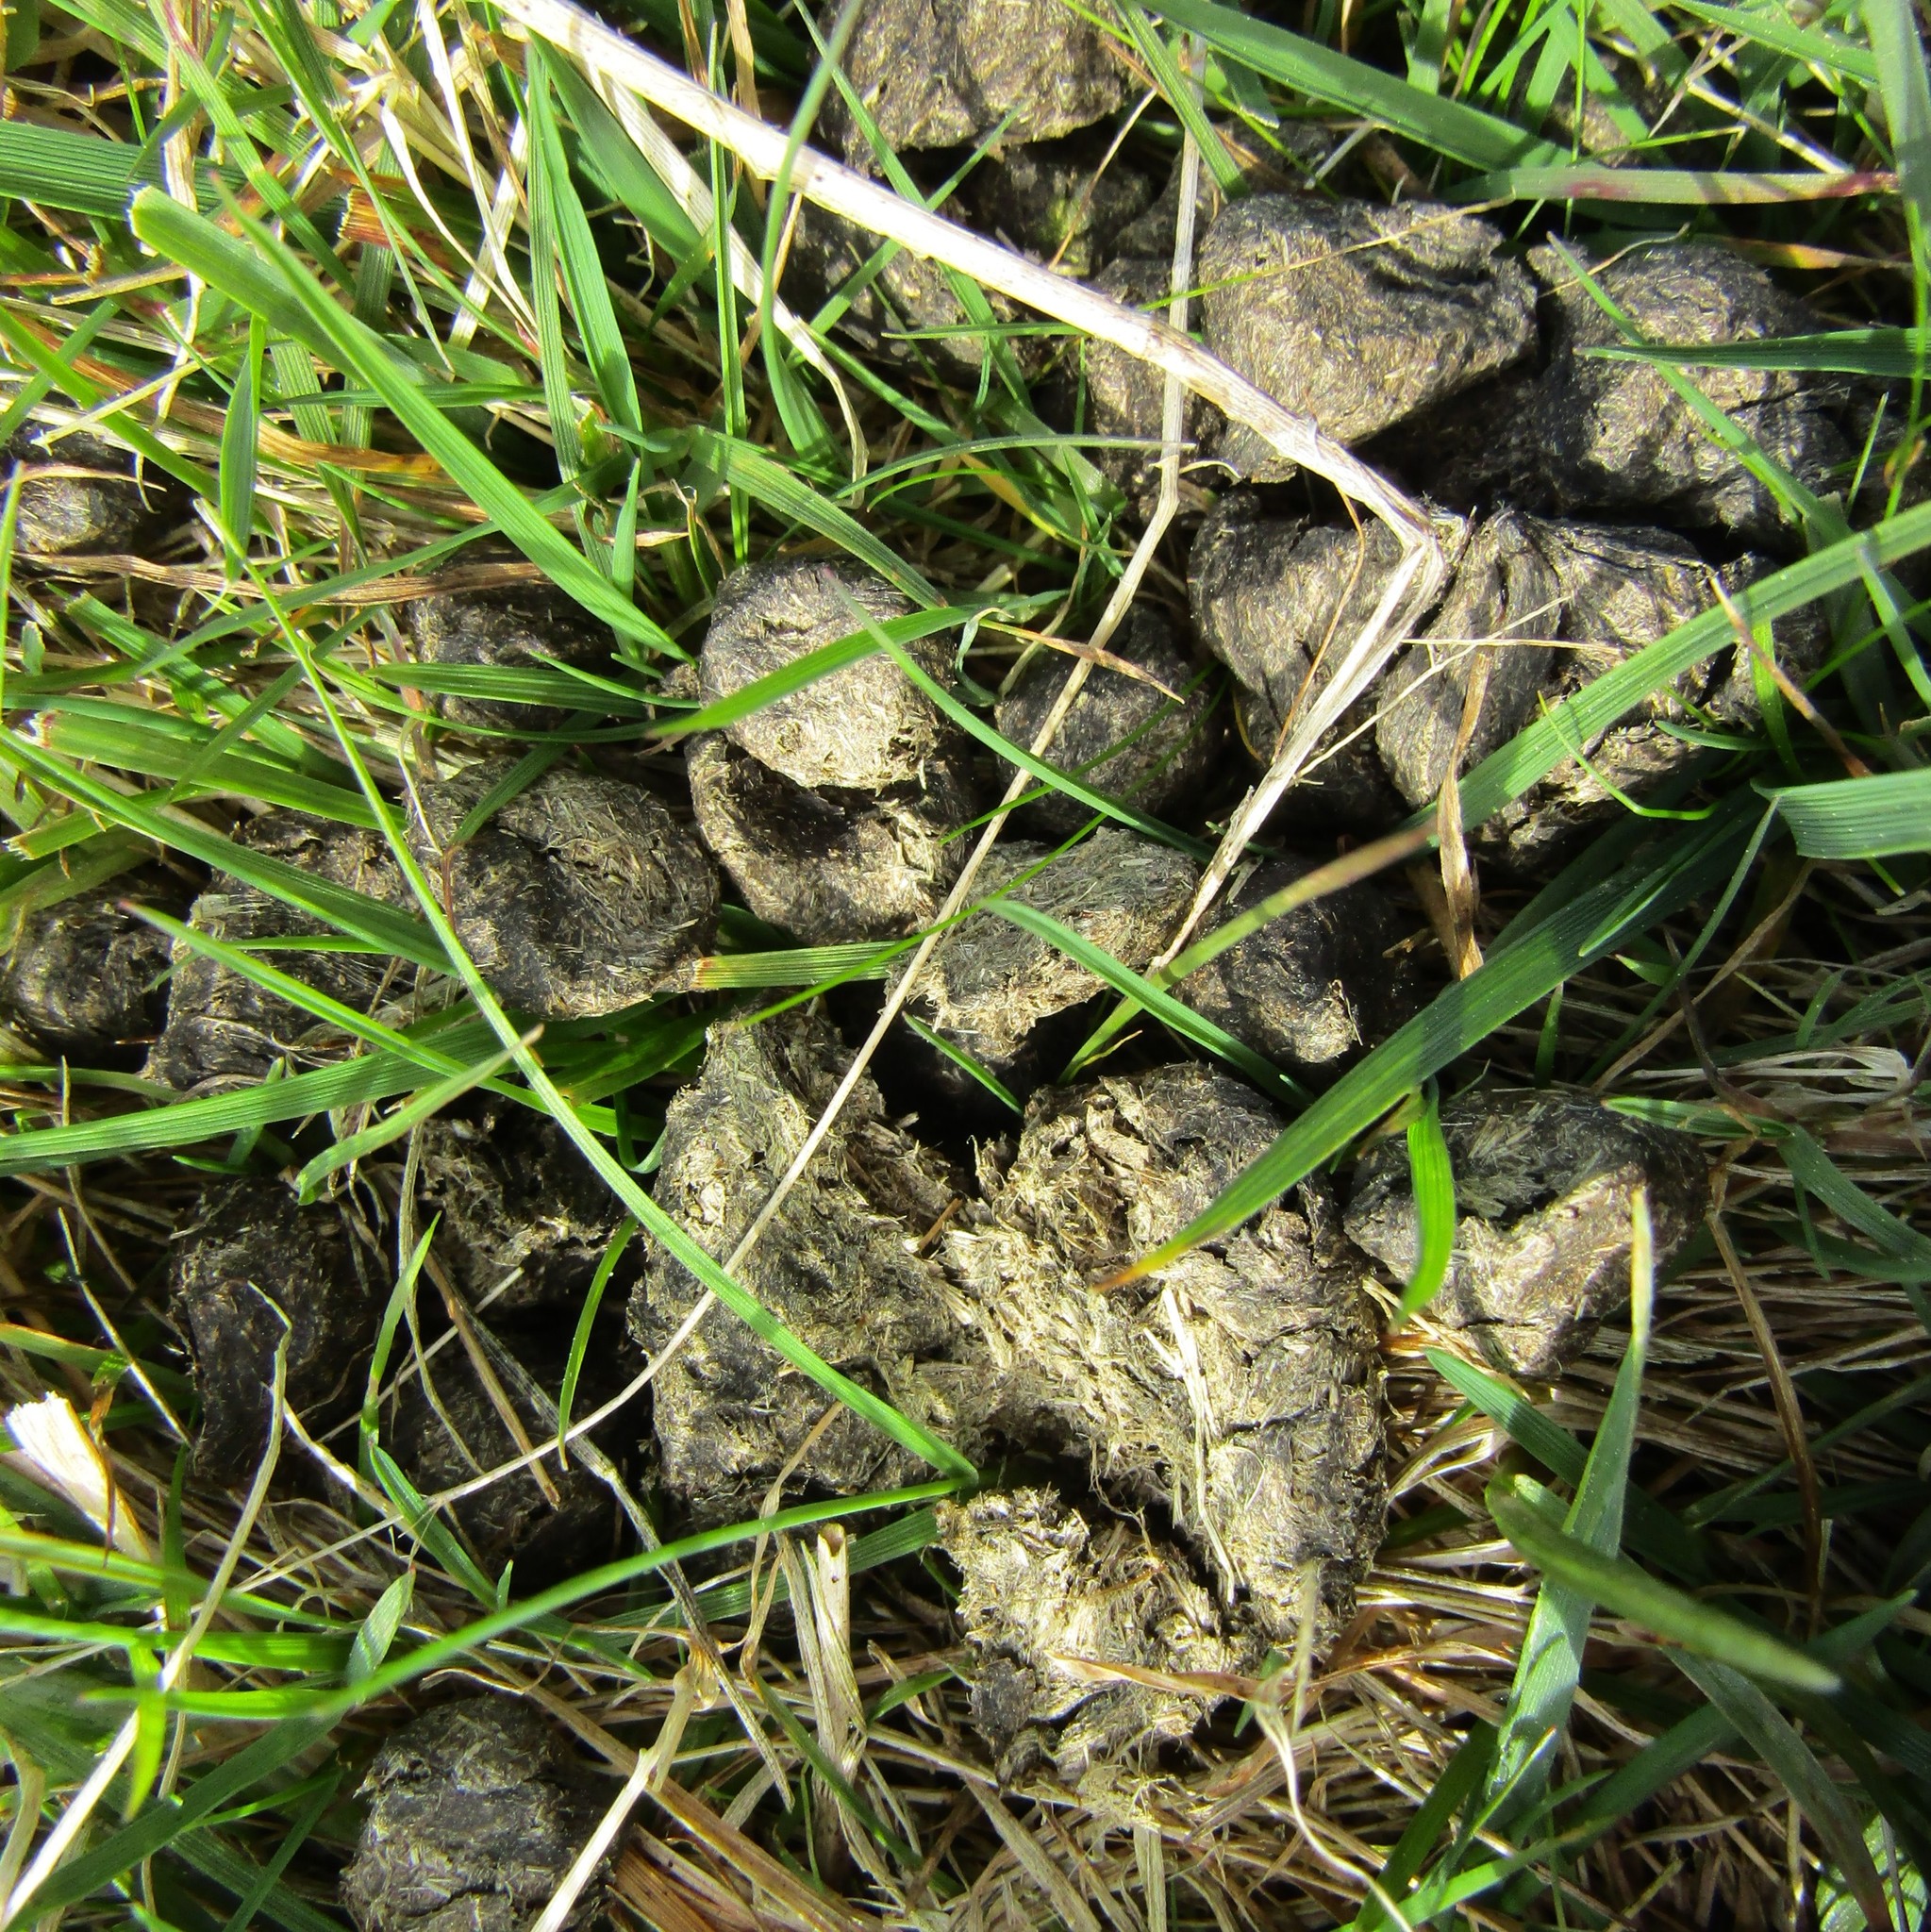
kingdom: Animalia
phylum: Chordata
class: Mammalia
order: Artiodactyla
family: Cervidae
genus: Cervus
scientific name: Cervus elaphus
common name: Red deer
